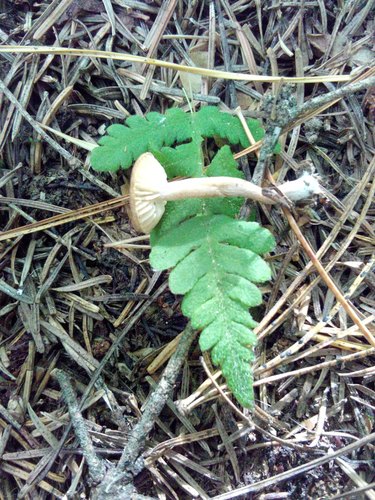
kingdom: Fungi
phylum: Basidiomycota
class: Agaricomycetes
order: Agaricales
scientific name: Agaricales
